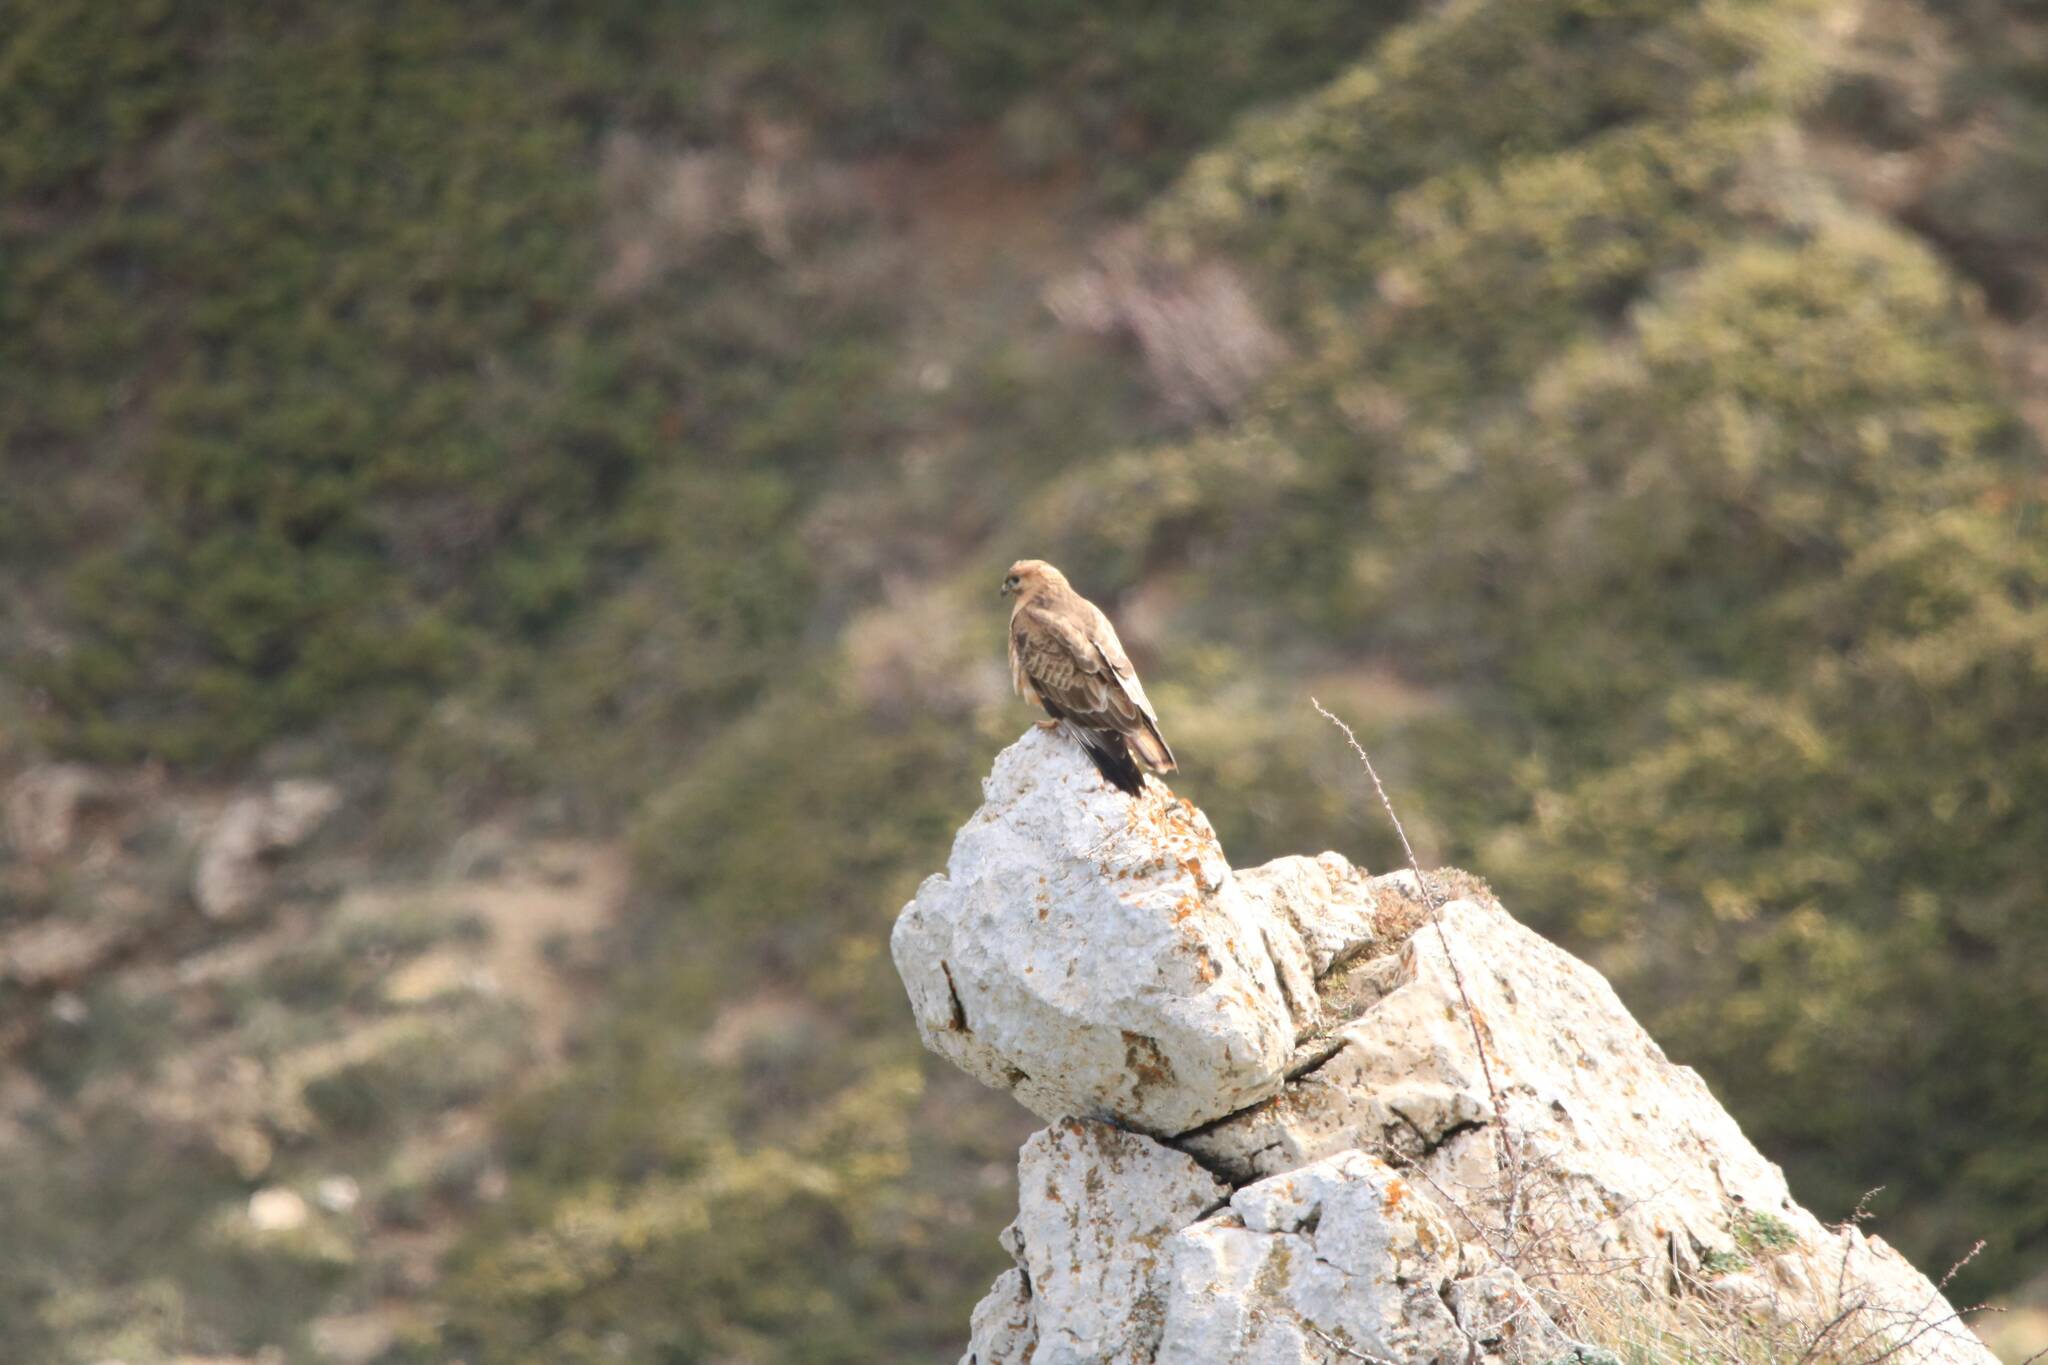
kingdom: Animalia
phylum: Chordata
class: Aves
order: Accipitriformes
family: Accipitridae
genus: Buteo
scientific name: Buteo rufinus
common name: Long-legged buzzard
